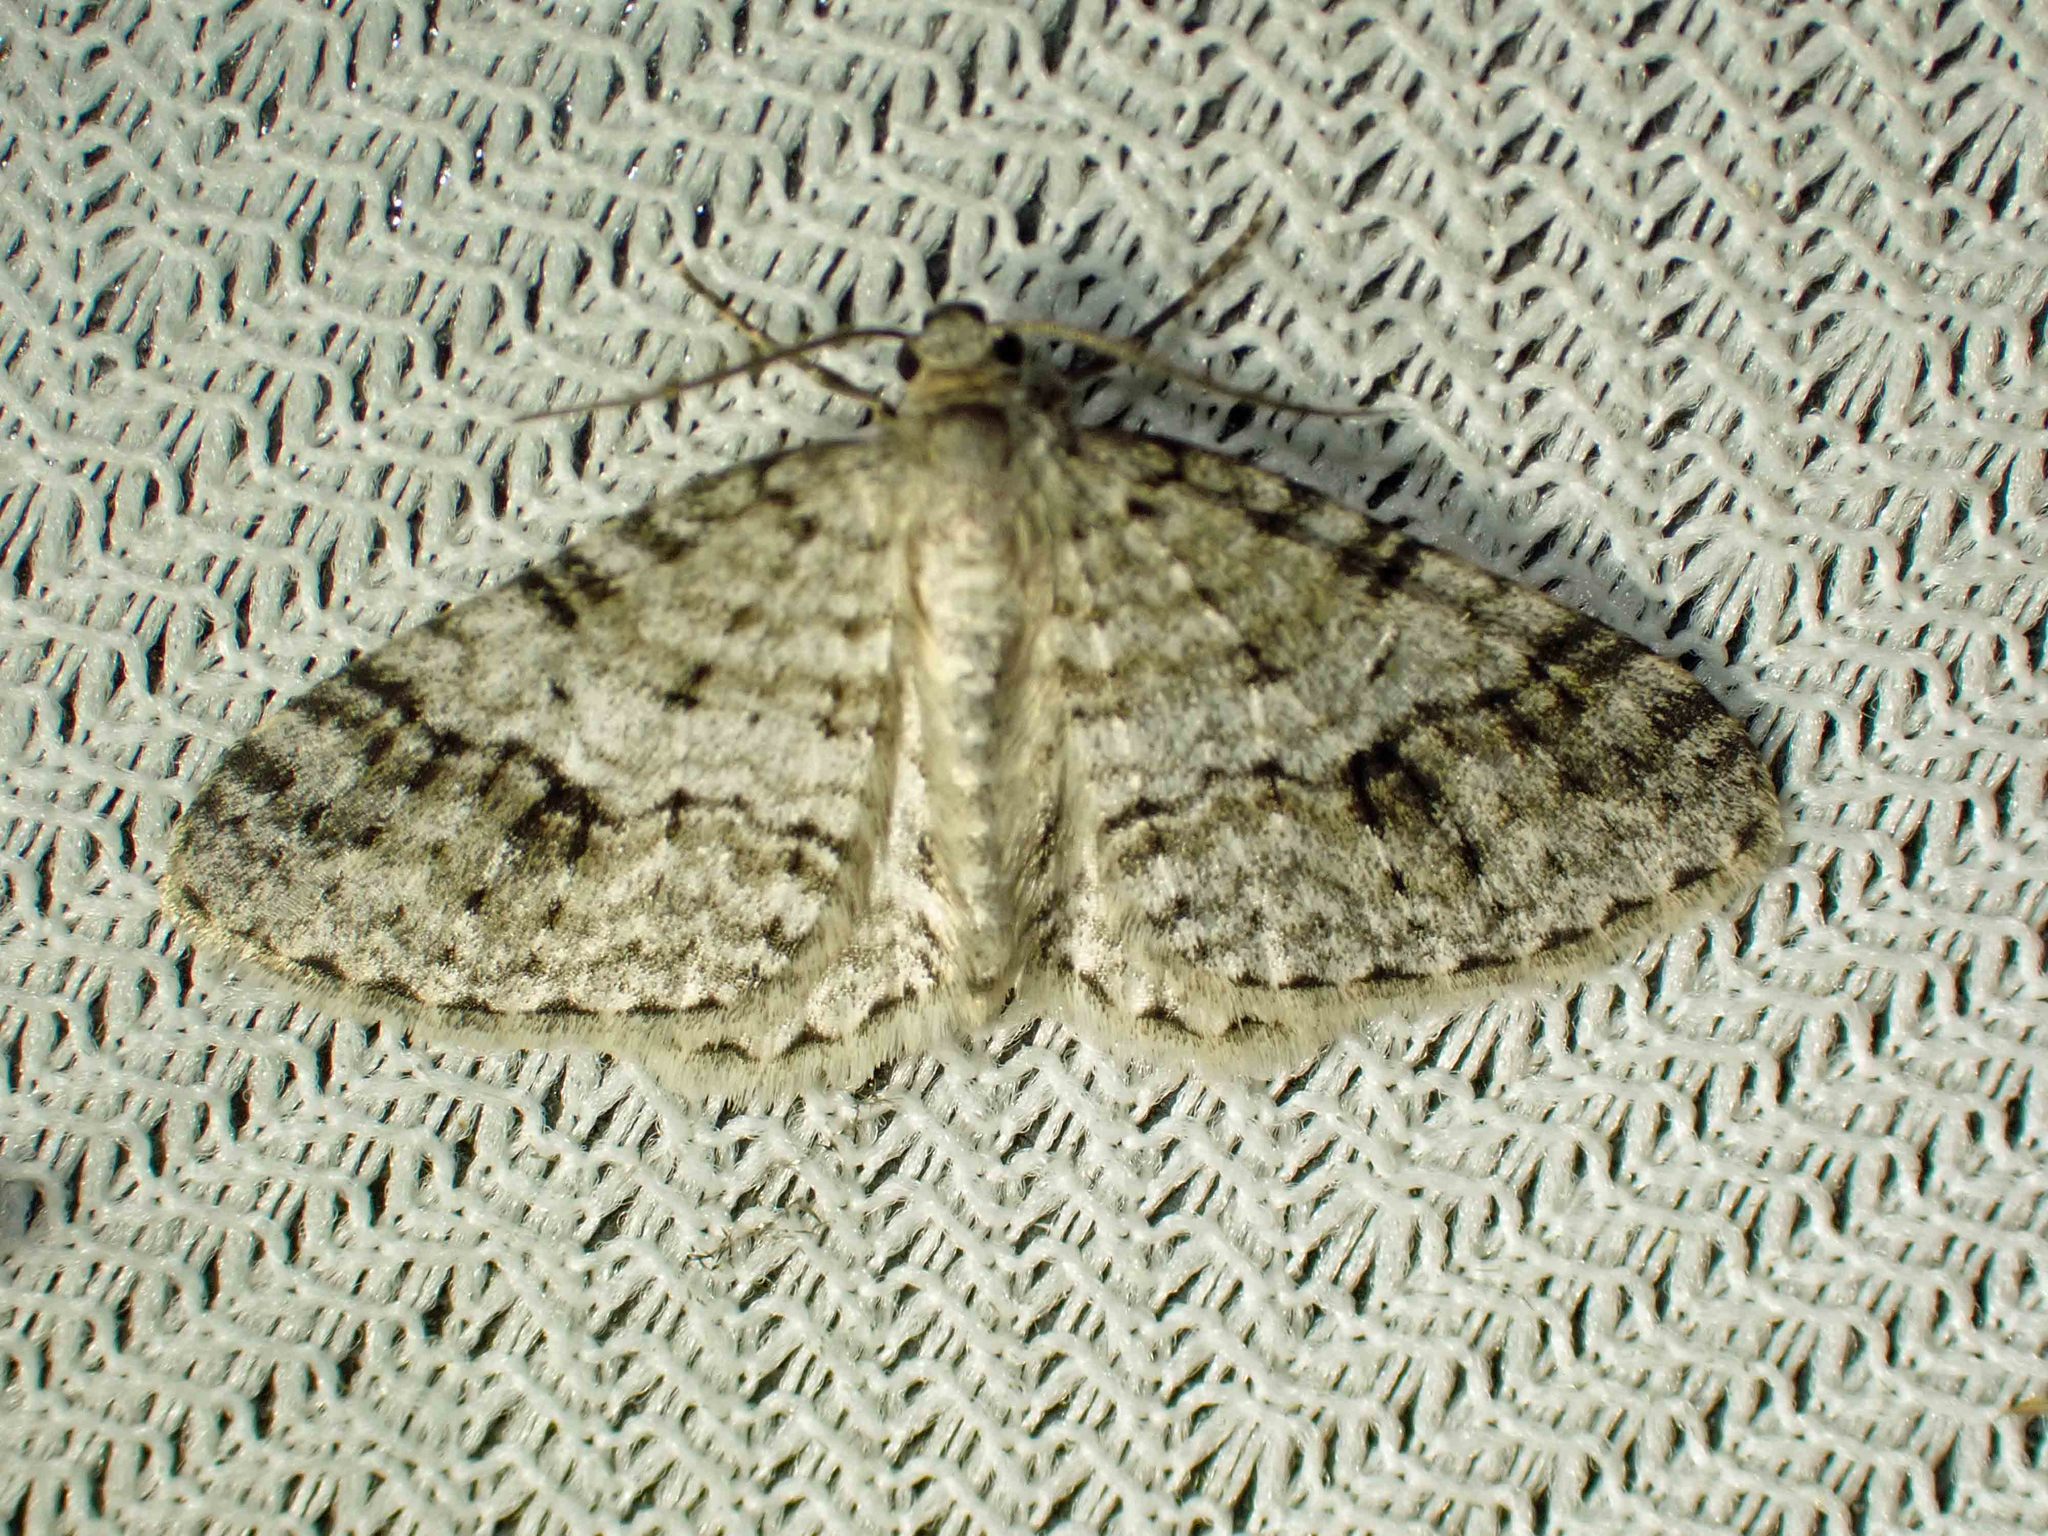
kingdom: Animalia
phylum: Arthropoda
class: Insecta
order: Lepidoptera
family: Geometridae
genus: Venusia
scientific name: Venusia cambrica
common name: Welsh wave
